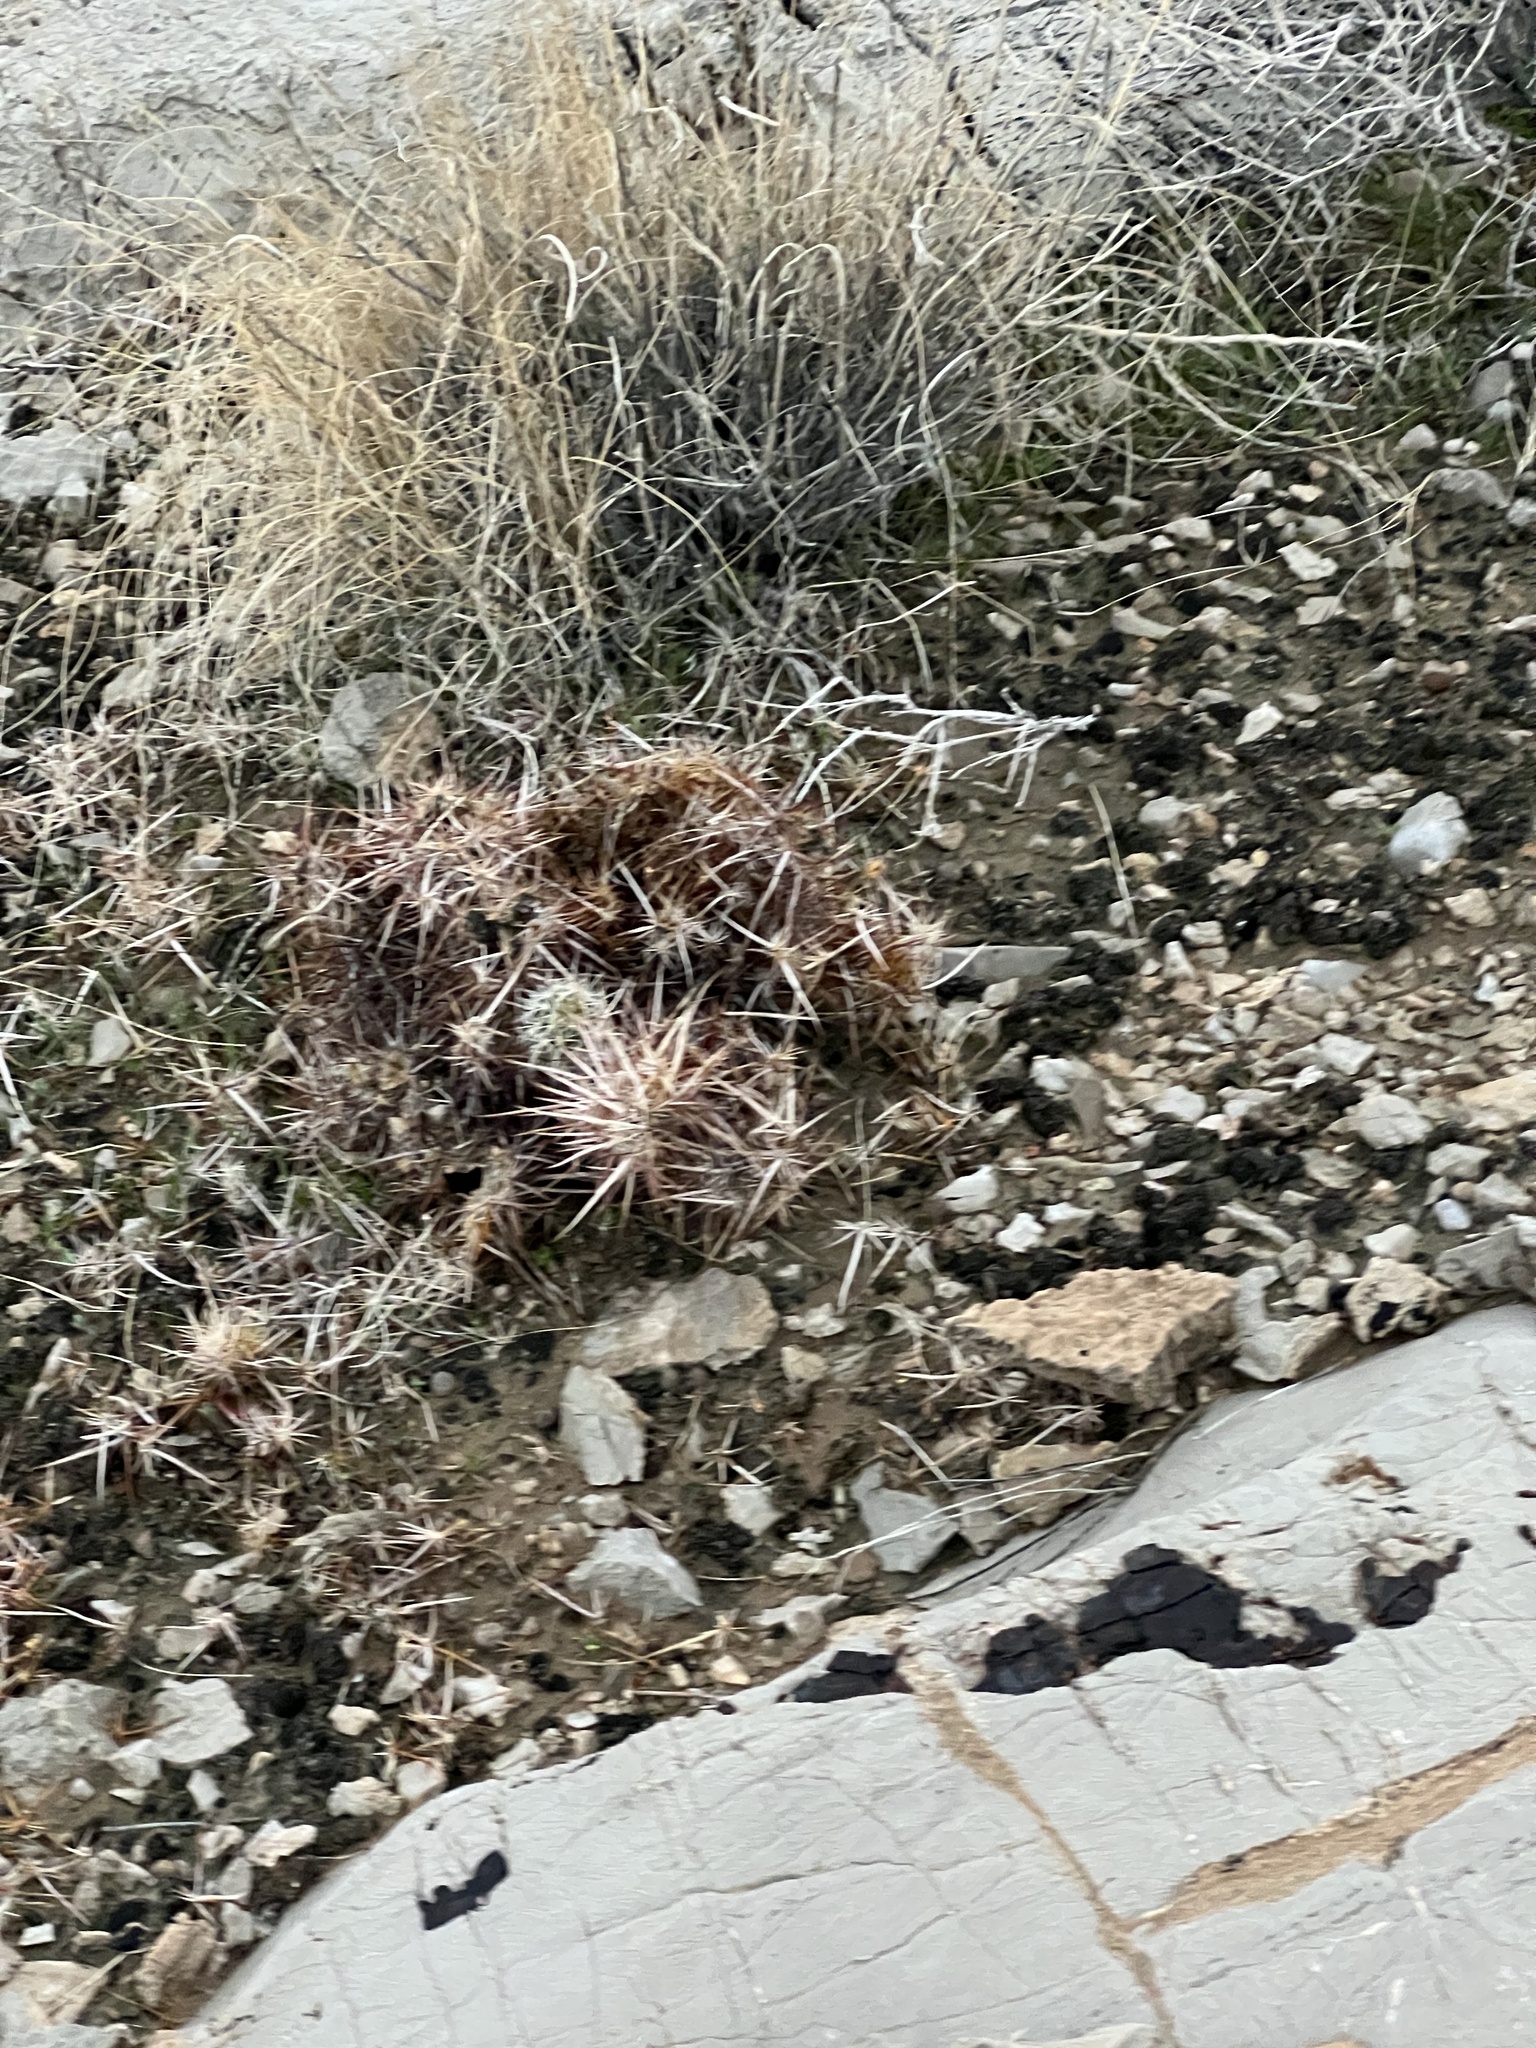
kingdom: Plantae
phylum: Tracheophyta
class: Magnoliopsida
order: Caryophyllales
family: Cactaceae
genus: Echinocereus
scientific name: Echinocereus engelmannii
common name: Engelmann's hedgehog cactus
